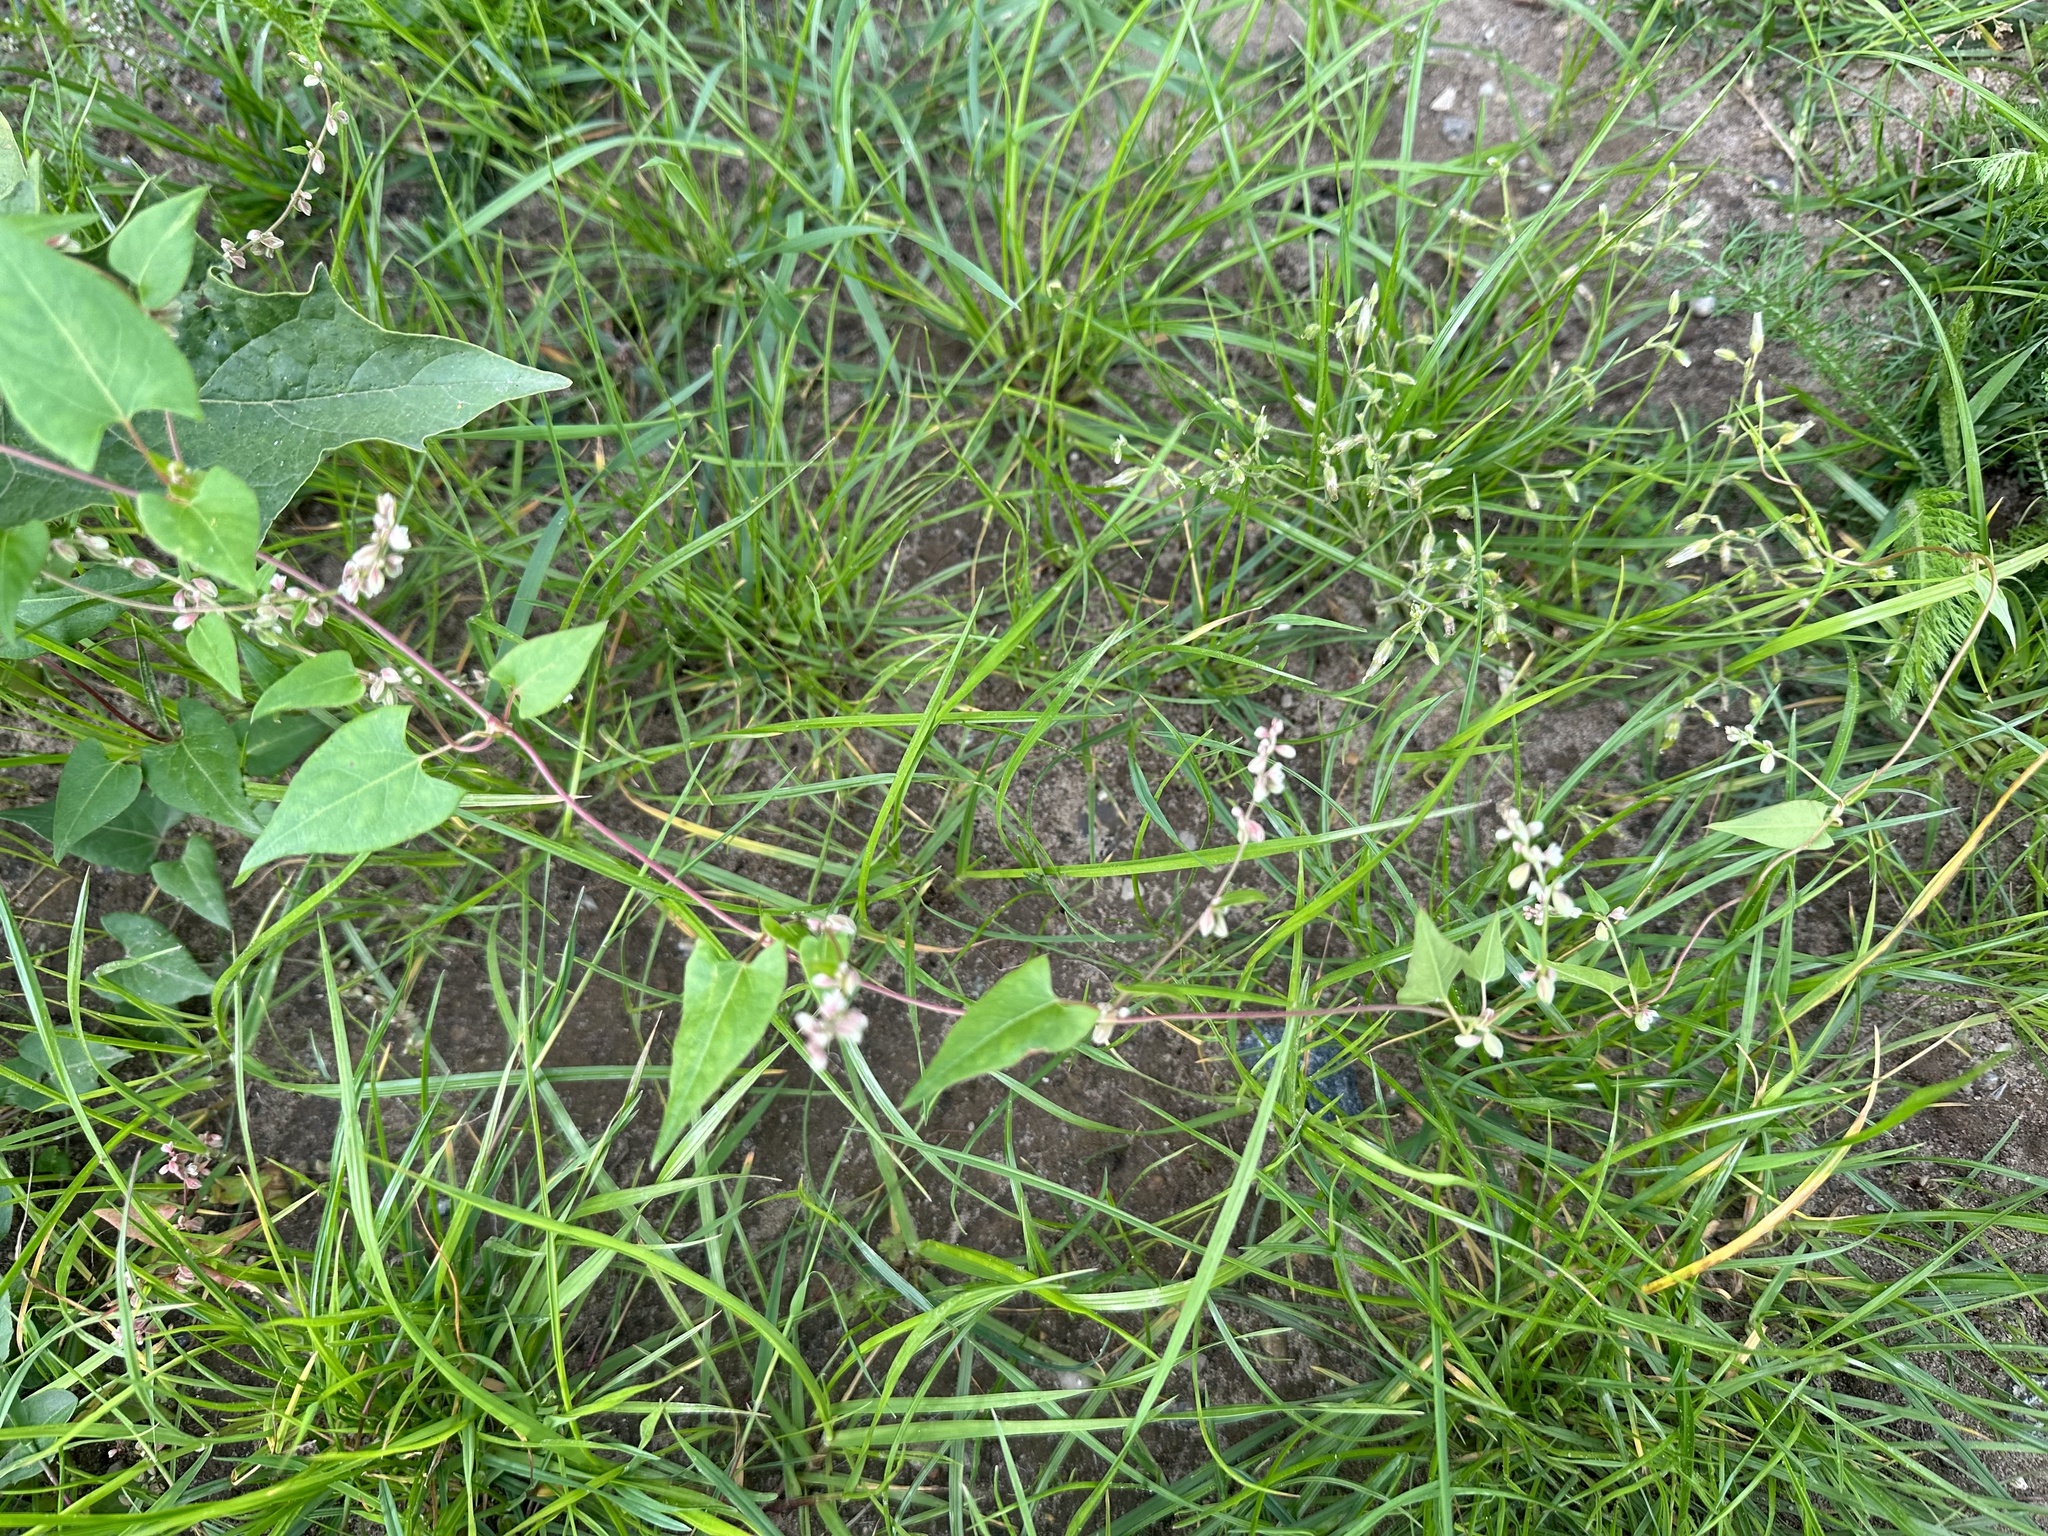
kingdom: Plantae
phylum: Tracheophyta
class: Magnoliopsida
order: Caryophyllales
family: Polygonaceae
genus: Fallopia
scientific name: Fallopia convolvulus
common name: Black bindweed
